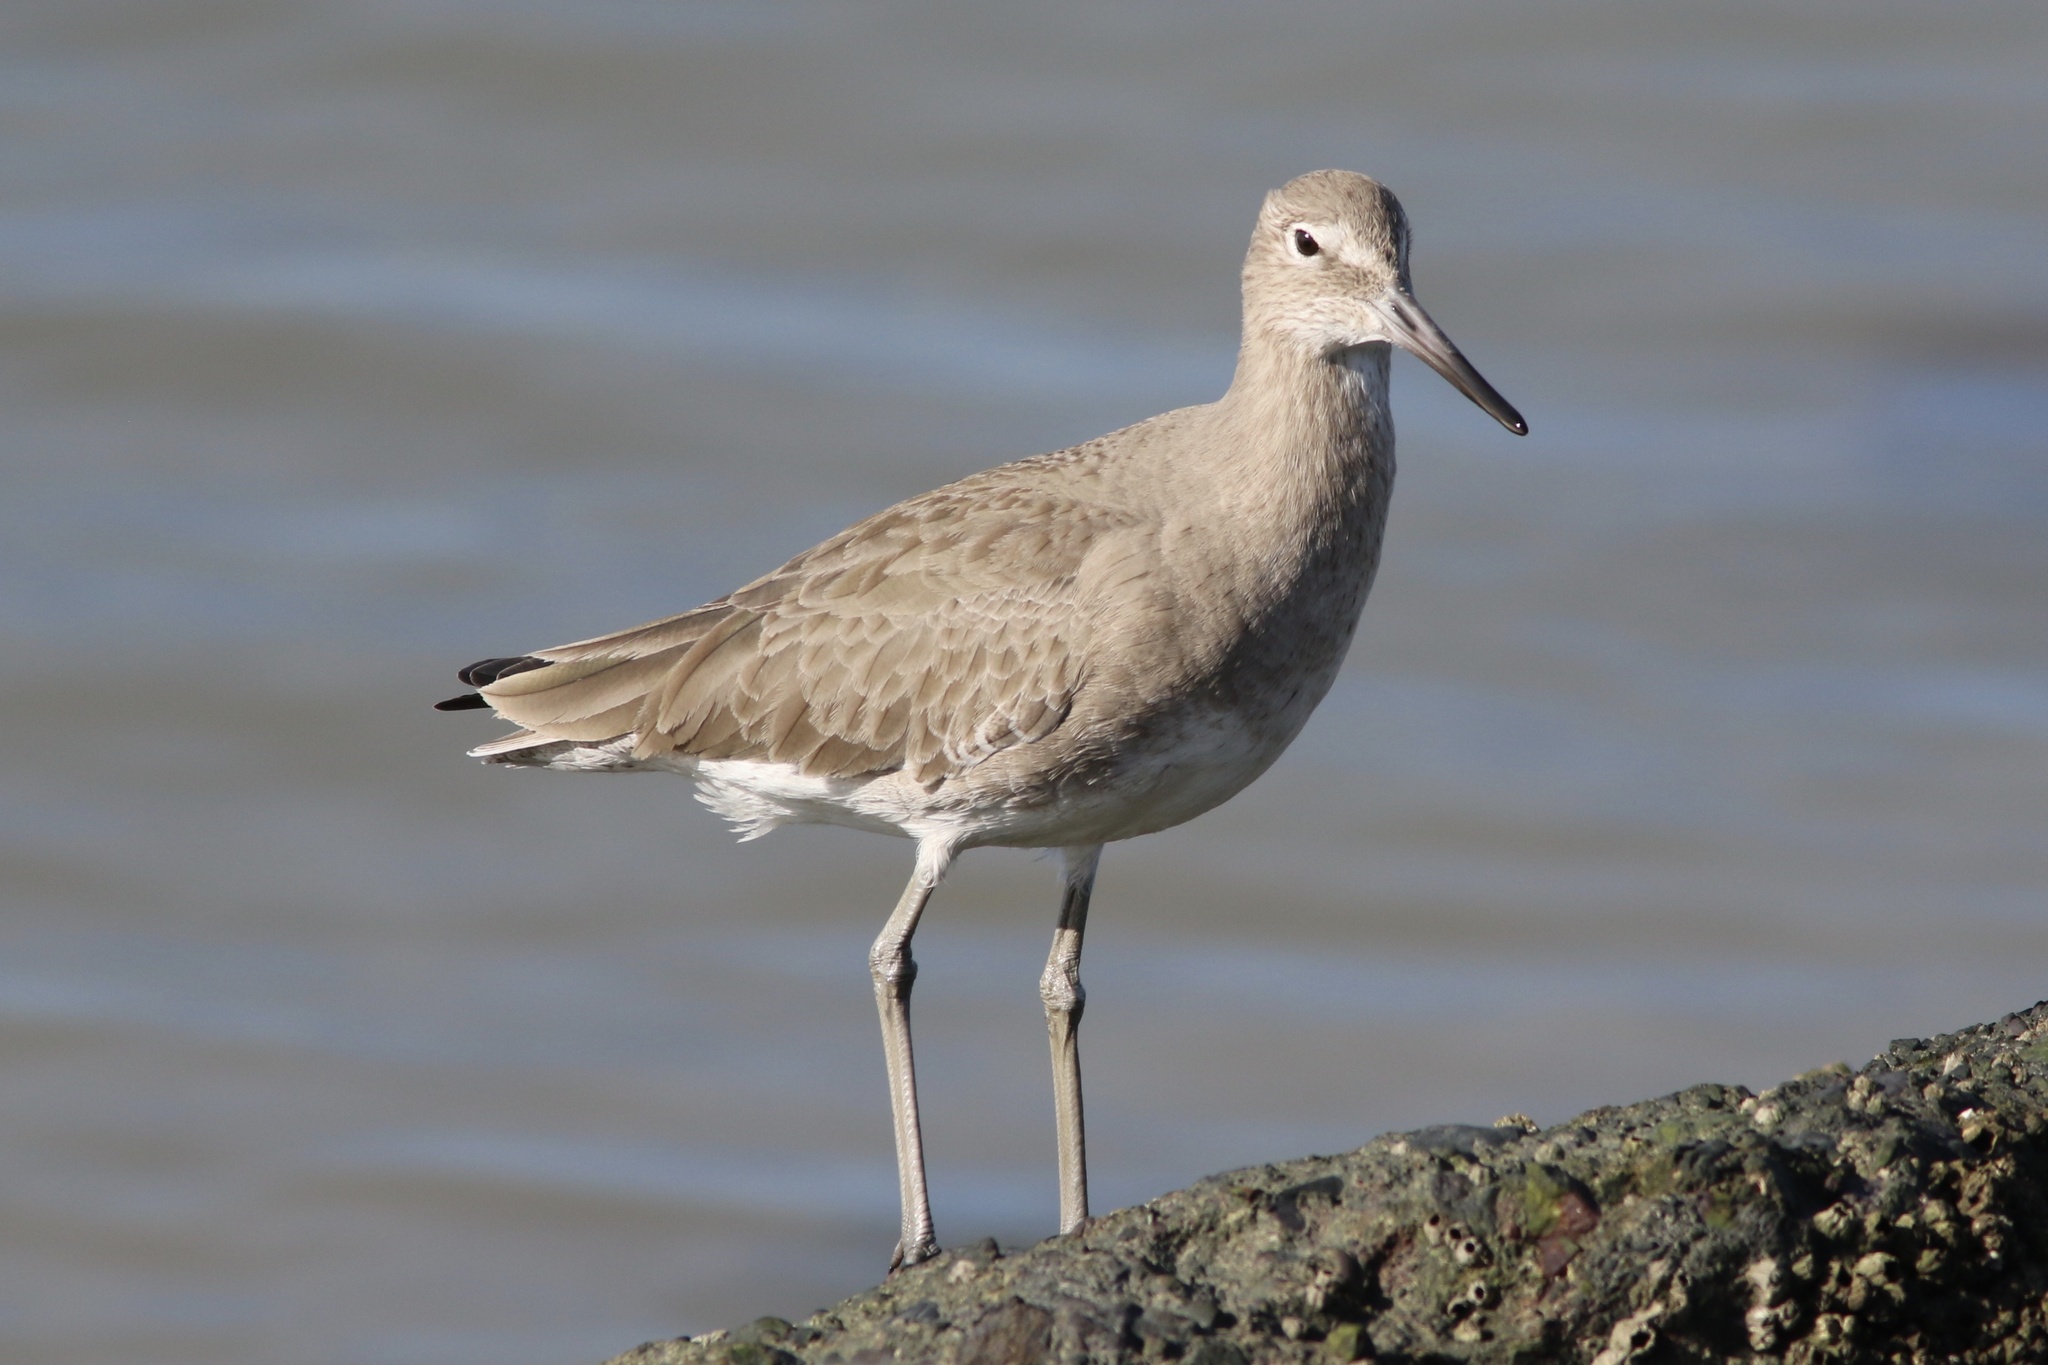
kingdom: Animalia
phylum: Chordata
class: Aves
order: Charadriiformes
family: Scolopacidae
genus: Tringa
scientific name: Tringa semipalmata
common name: Willet
